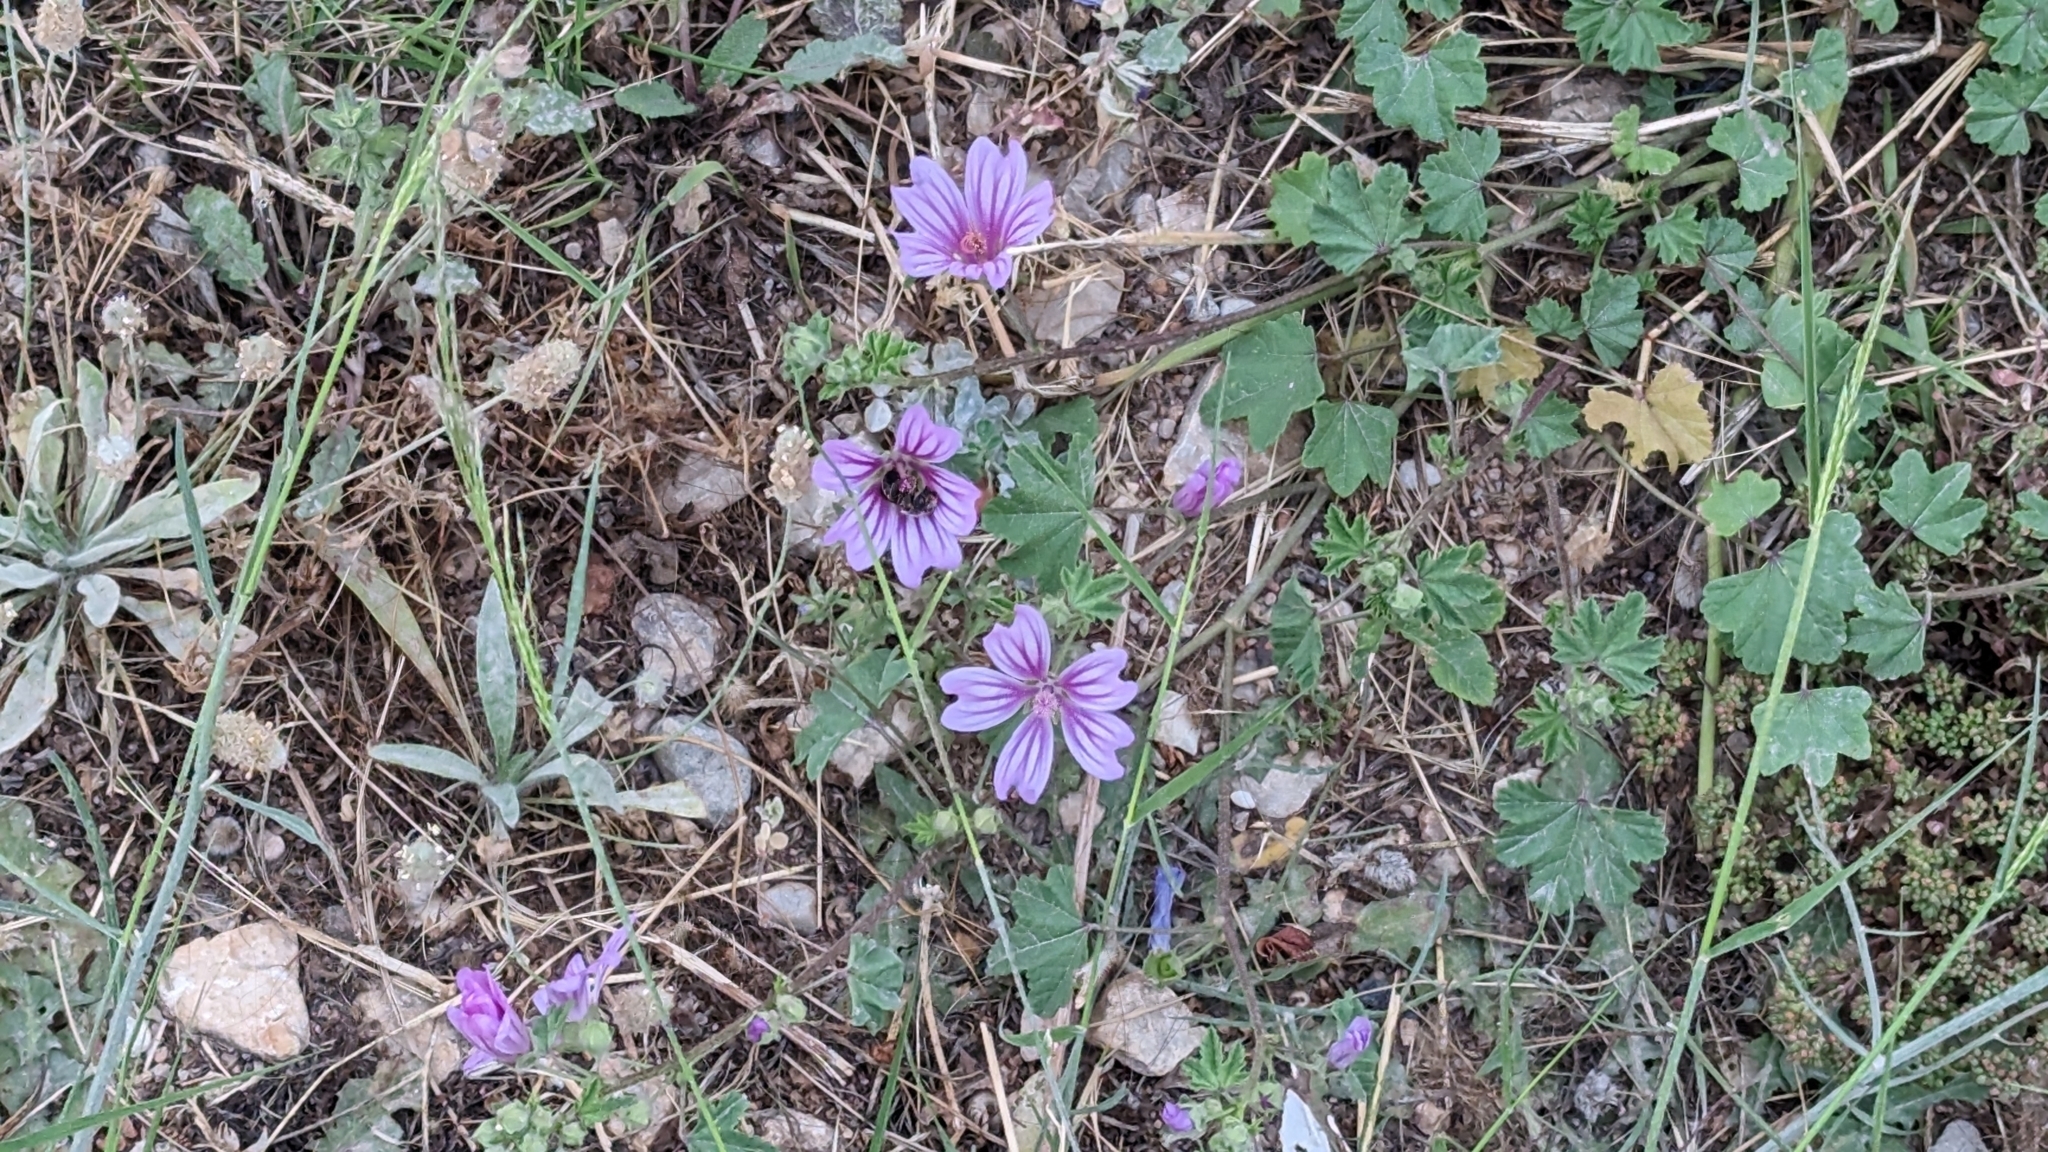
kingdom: Plantae
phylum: Tracheophyta
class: Magnoliopsida
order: Malvales
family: Malvaceae
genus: Malva
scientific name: Malva sylvestris
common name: Common mallow
